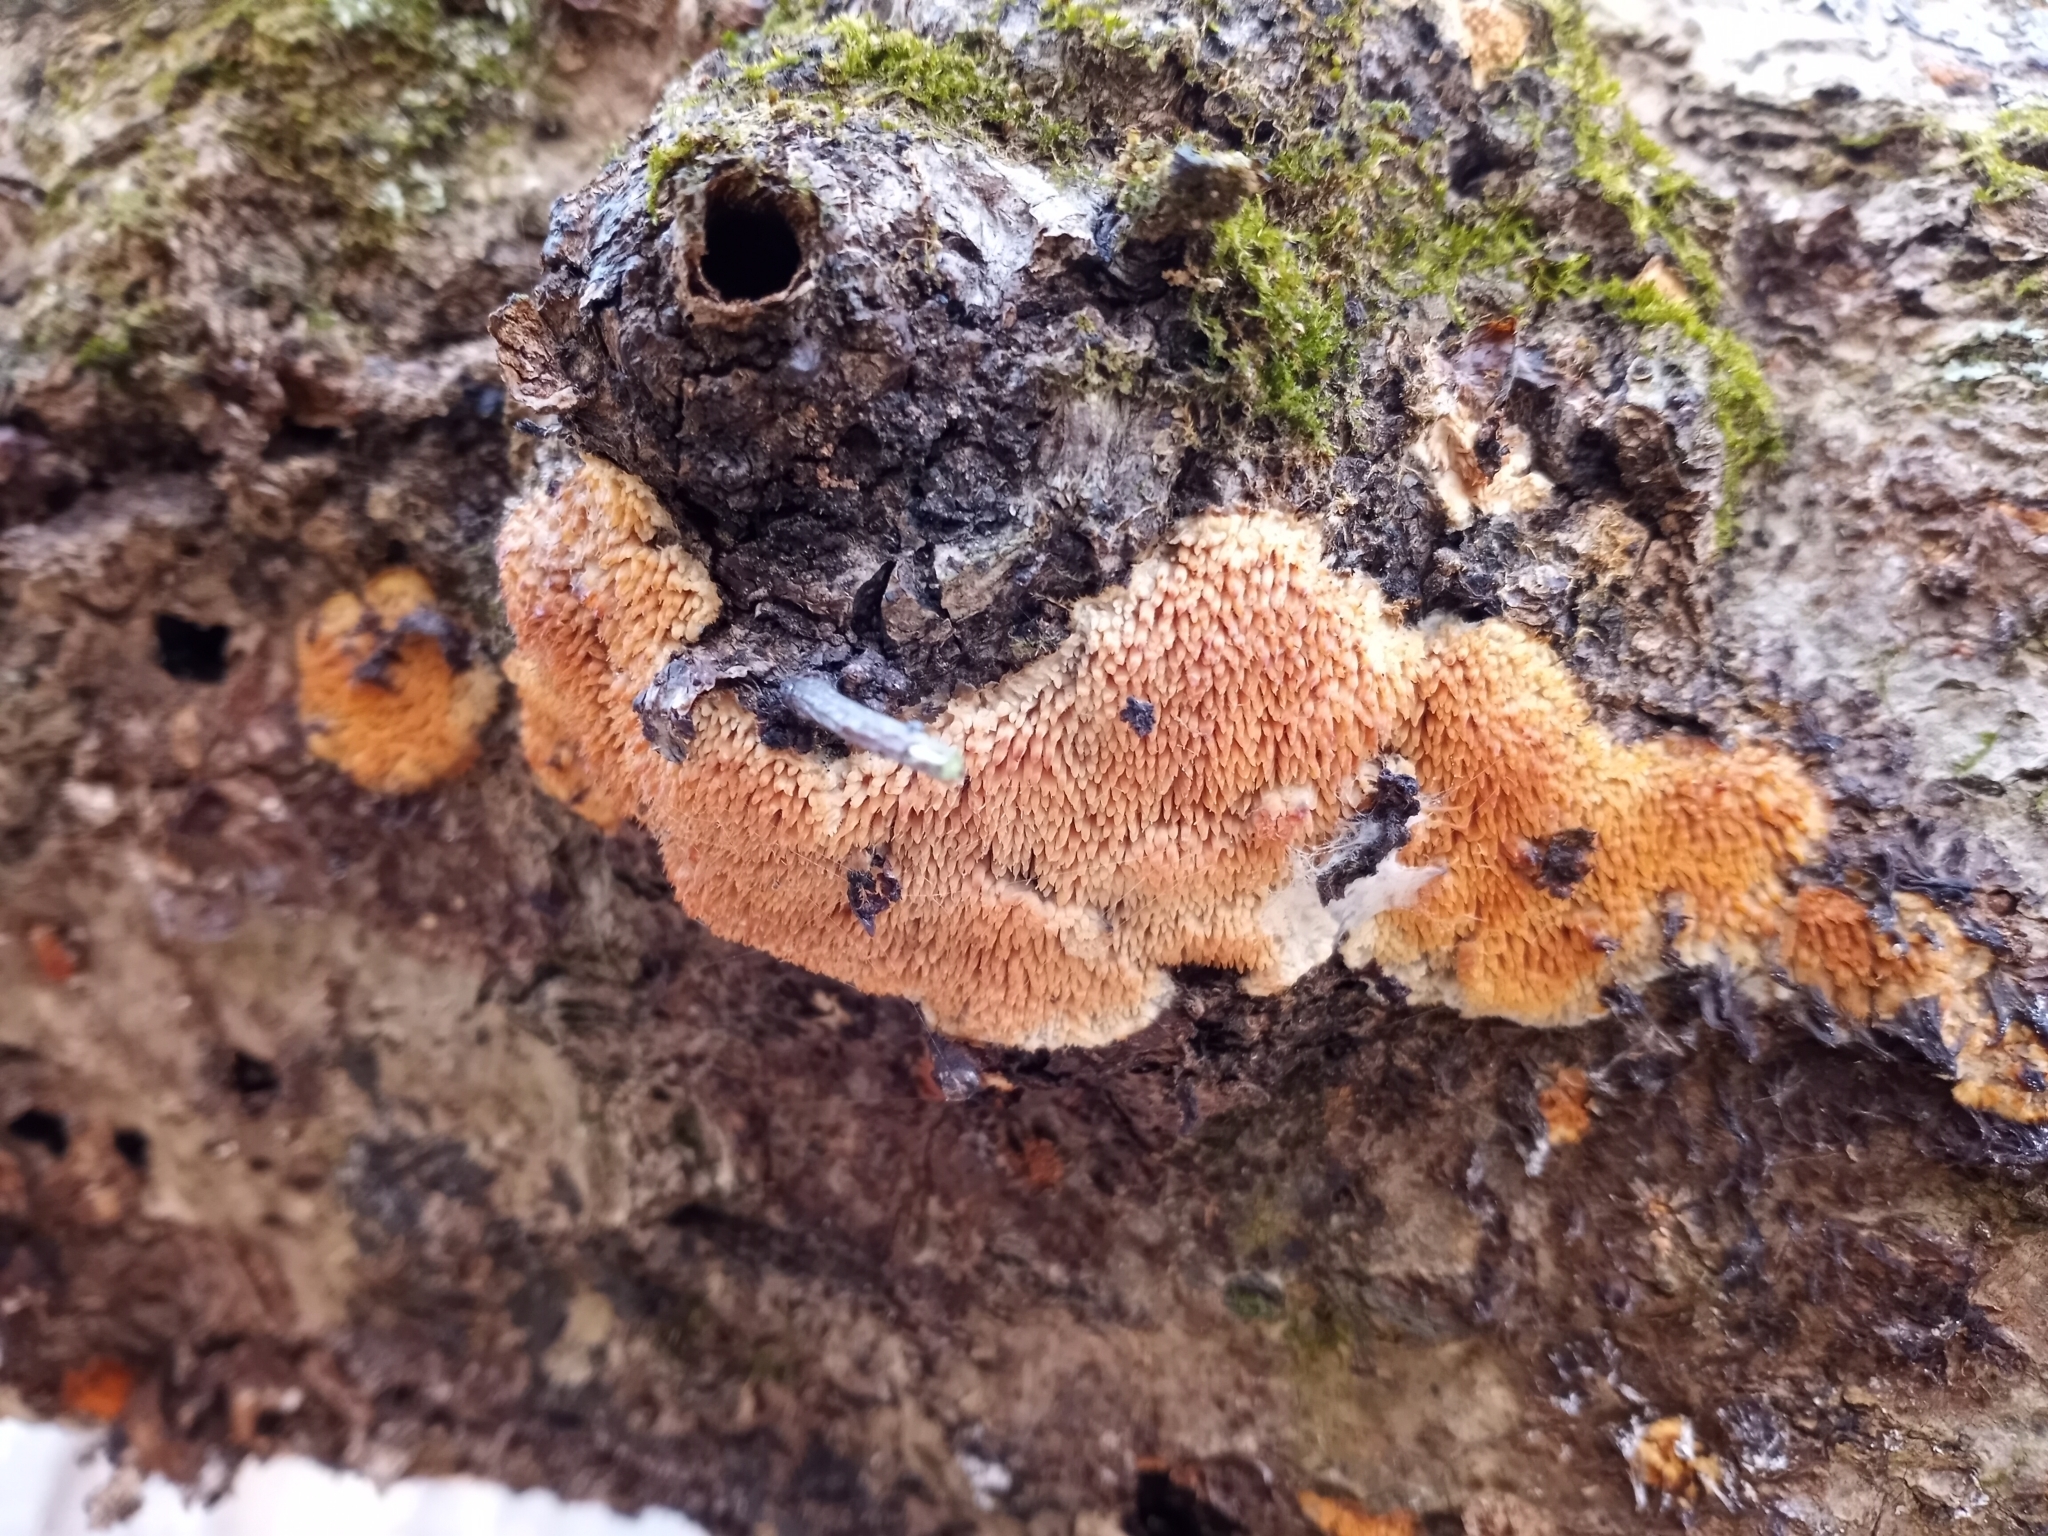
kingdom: Fungi
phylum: Basidiomycota
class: Agaricomycetes
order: Polyporales
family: Steccherinaceae
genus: Steccherinum
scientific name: Steccherinum ochraceum
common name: Ochre spreading tooth
